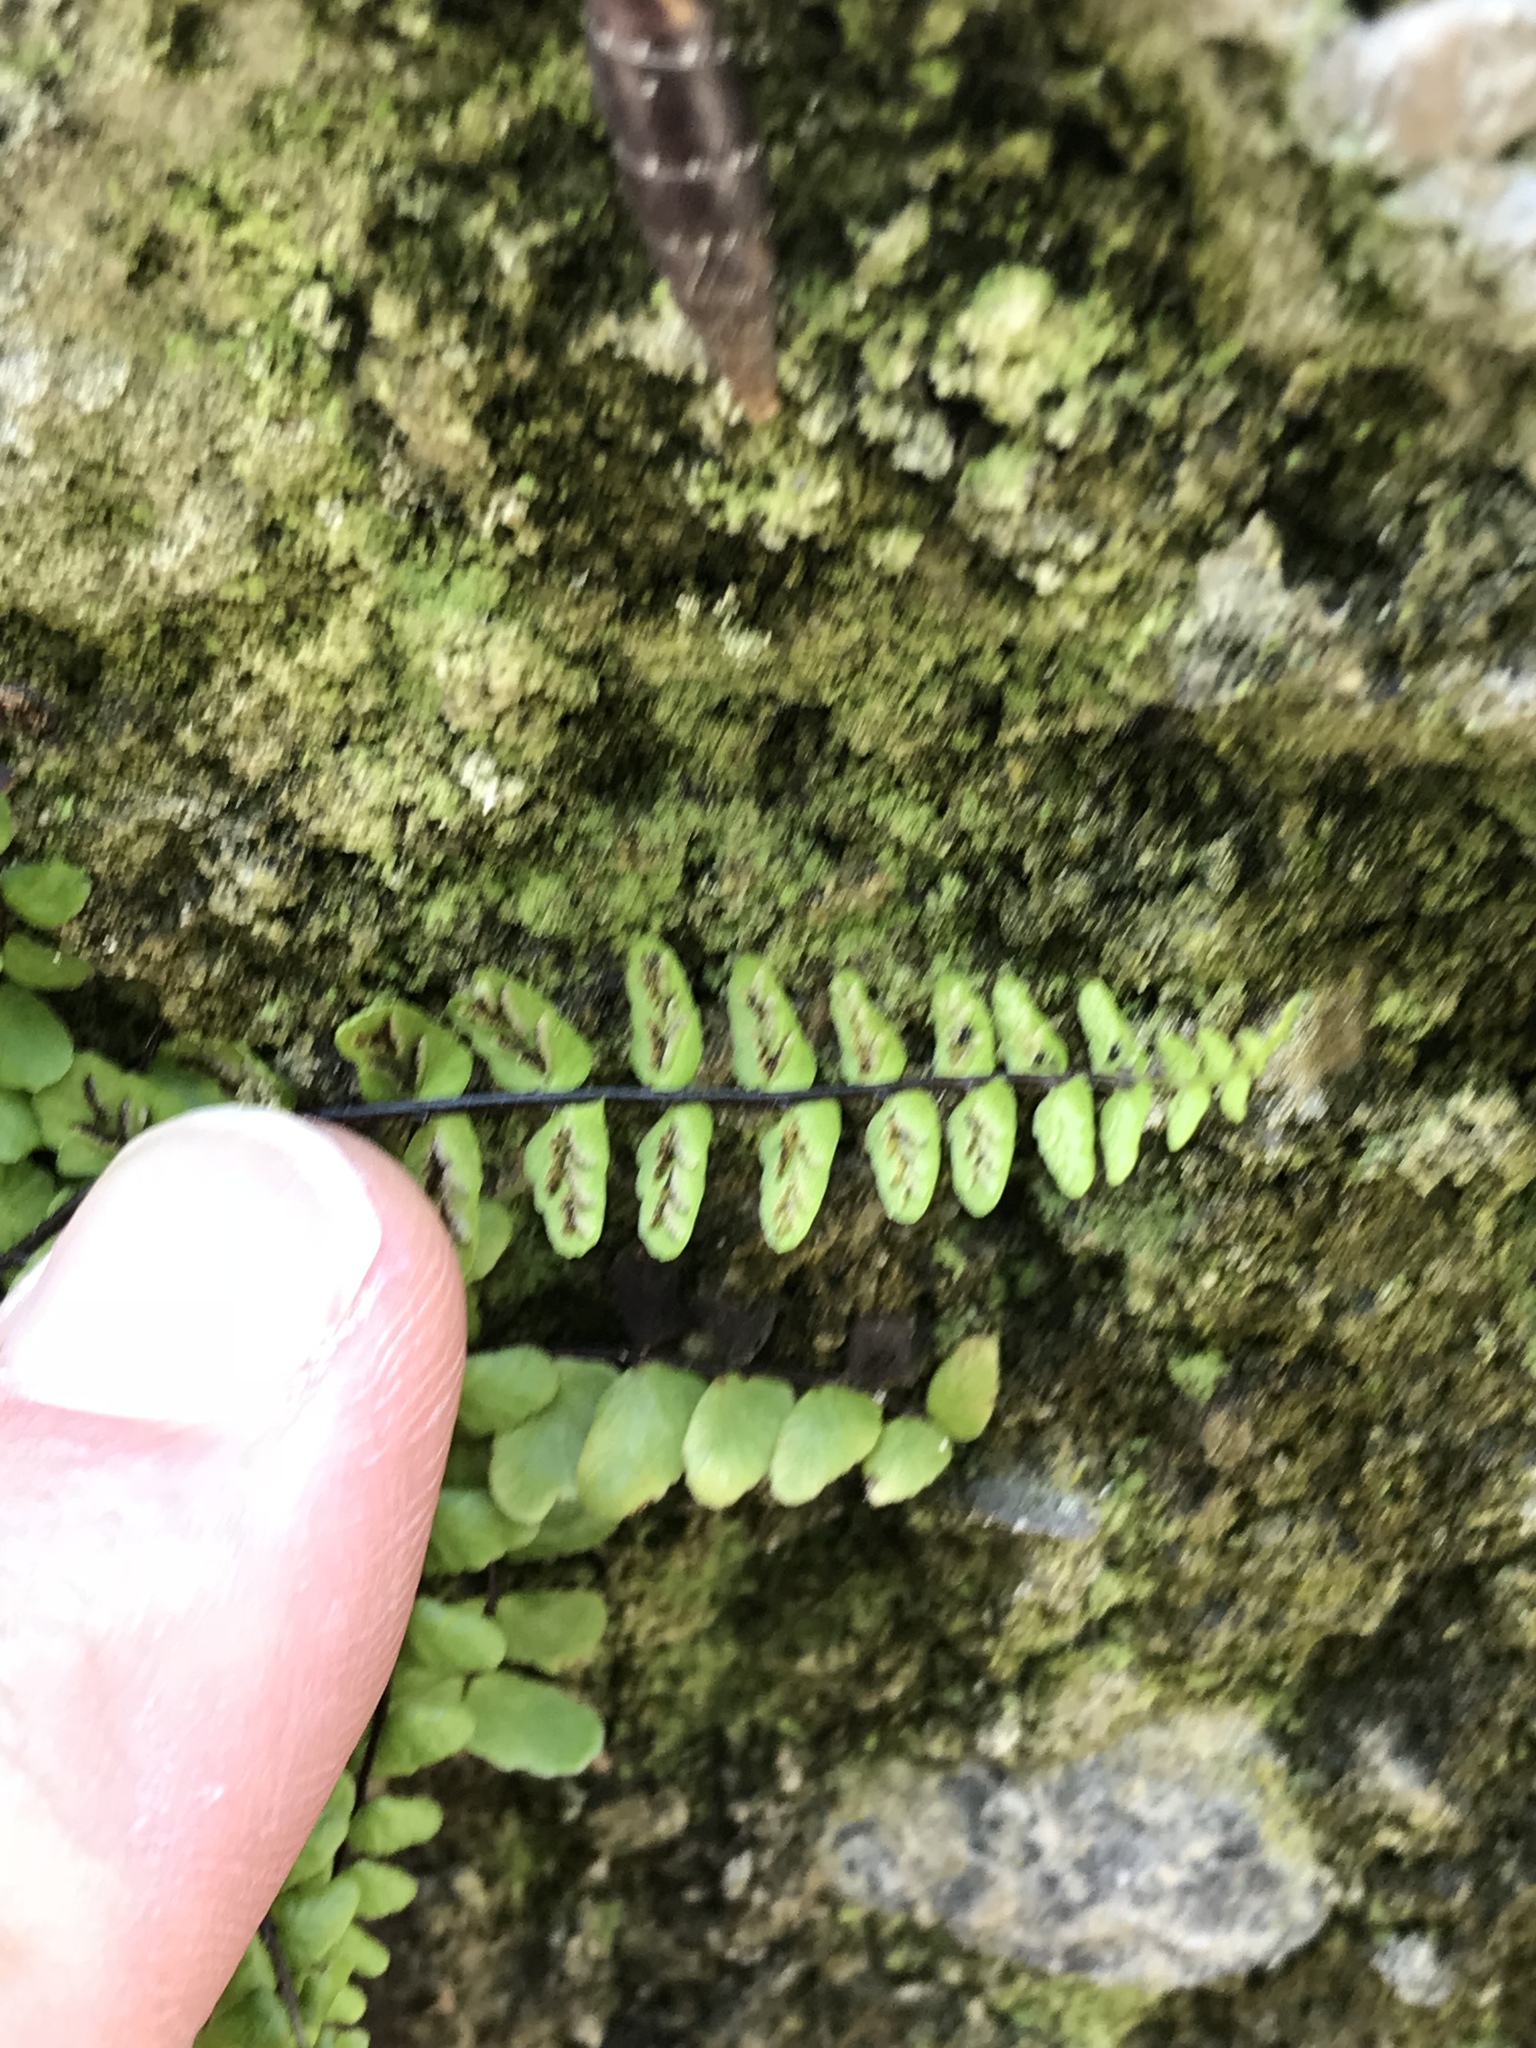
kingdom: Plantae
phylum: Tracheophyta
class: Polypodiopsida
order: Polypodiales
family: Aspleniaceae
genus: Asplenium
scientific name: Asplenium trichomanes
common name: Maidenhair spleenwort
